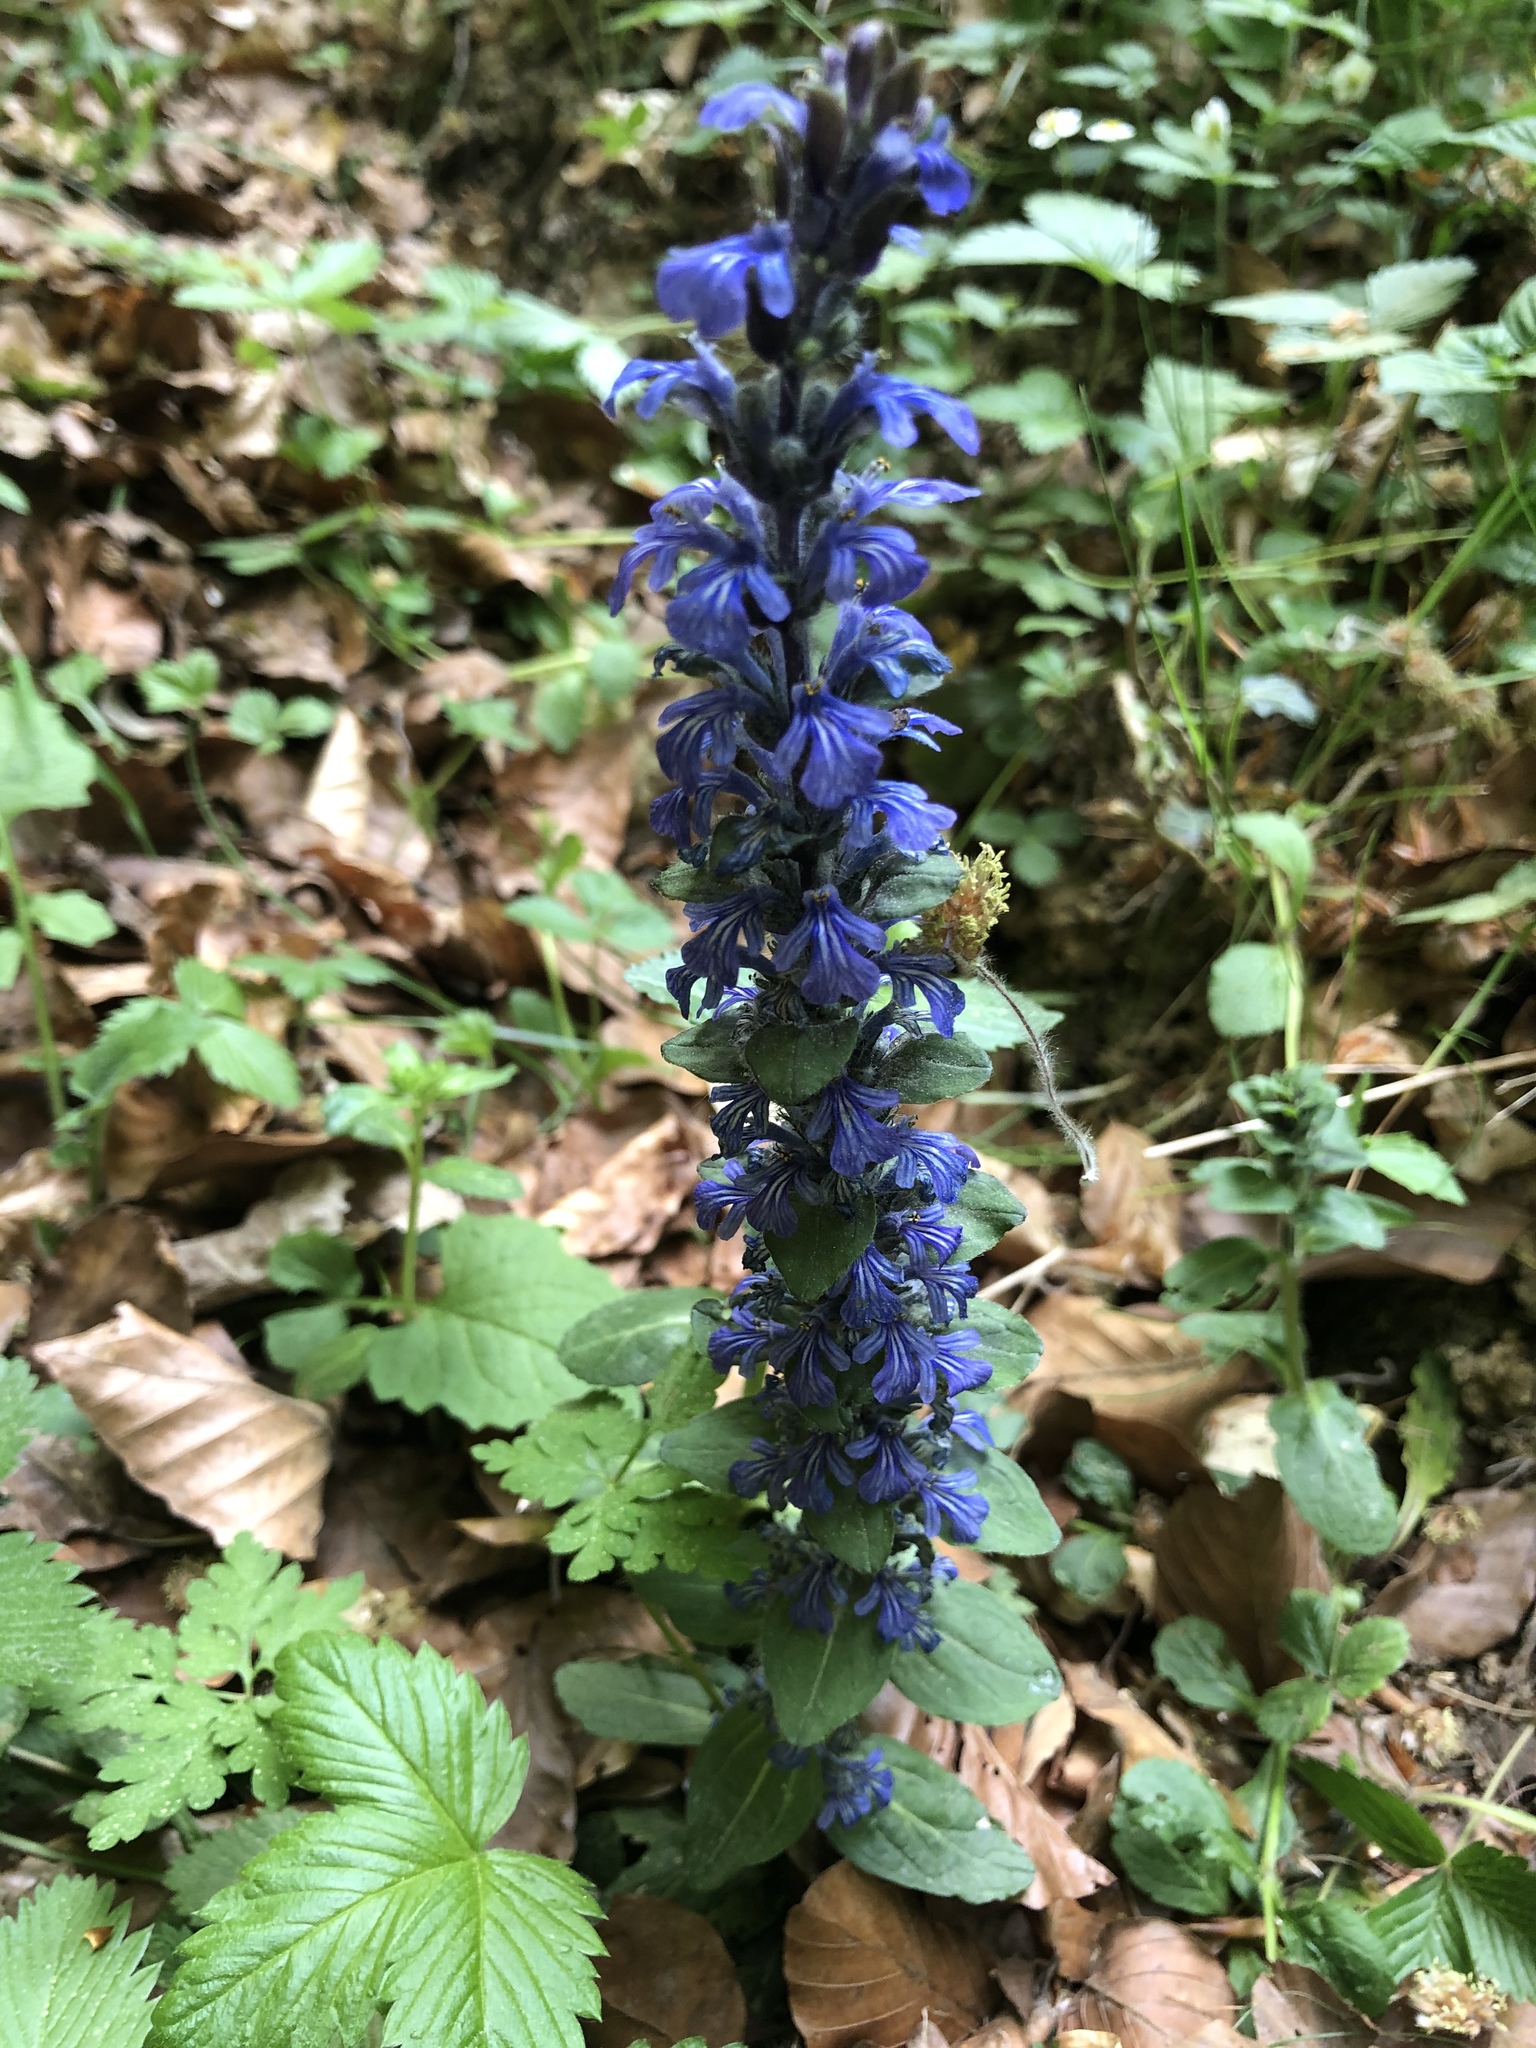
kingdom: Plantae
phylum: Tracheophyta
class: Magnoliopsida
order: Lamiales
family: Lamiaceae
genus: Ajuga
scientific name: Ajuga reptans
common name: Bugle
